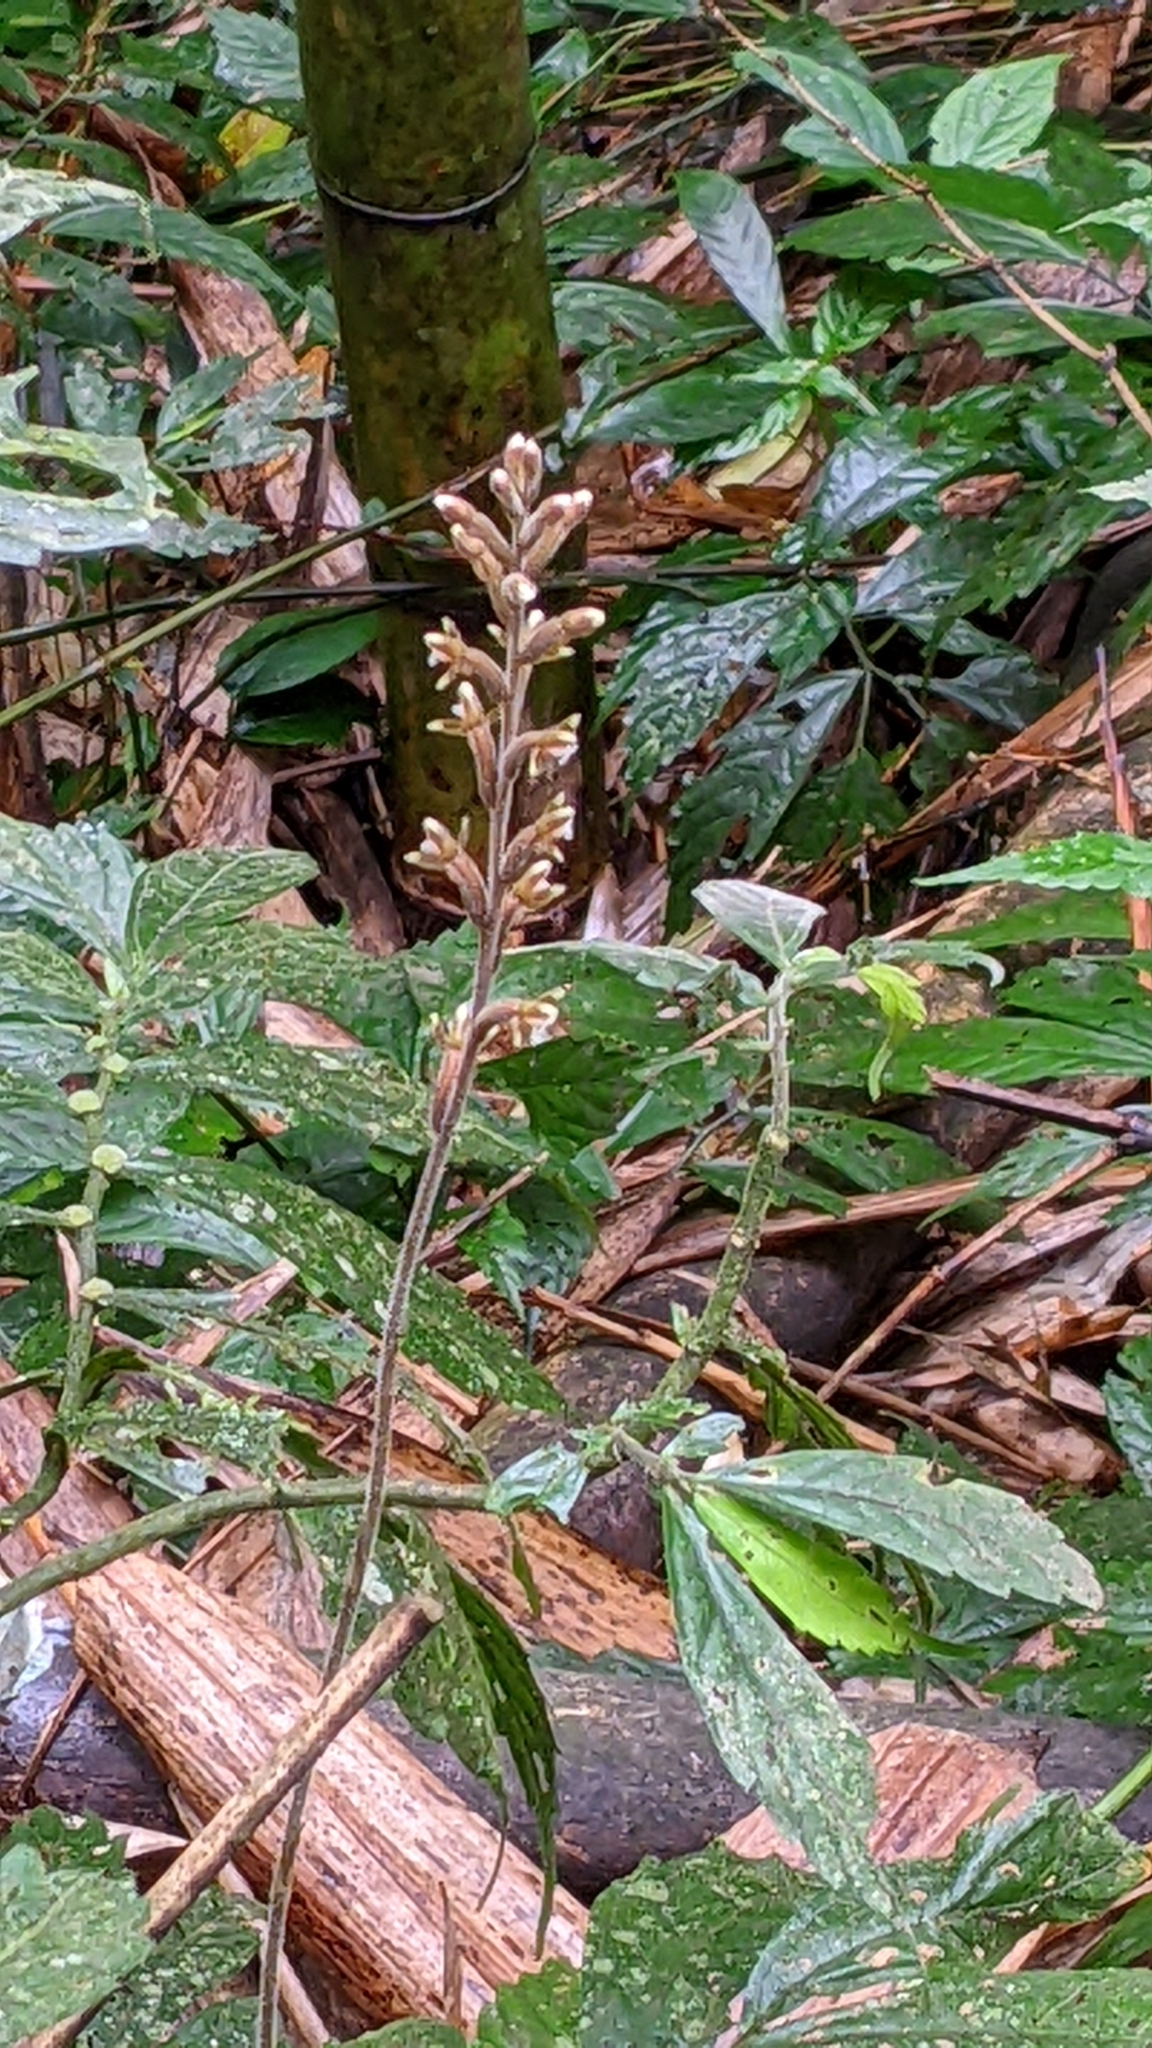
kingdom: Plantae
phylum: Tracheophyta
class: Liliopsida
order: Asparagales
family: Orchidaceae
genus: Erythrodes
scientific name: Erythrodes chinensis
